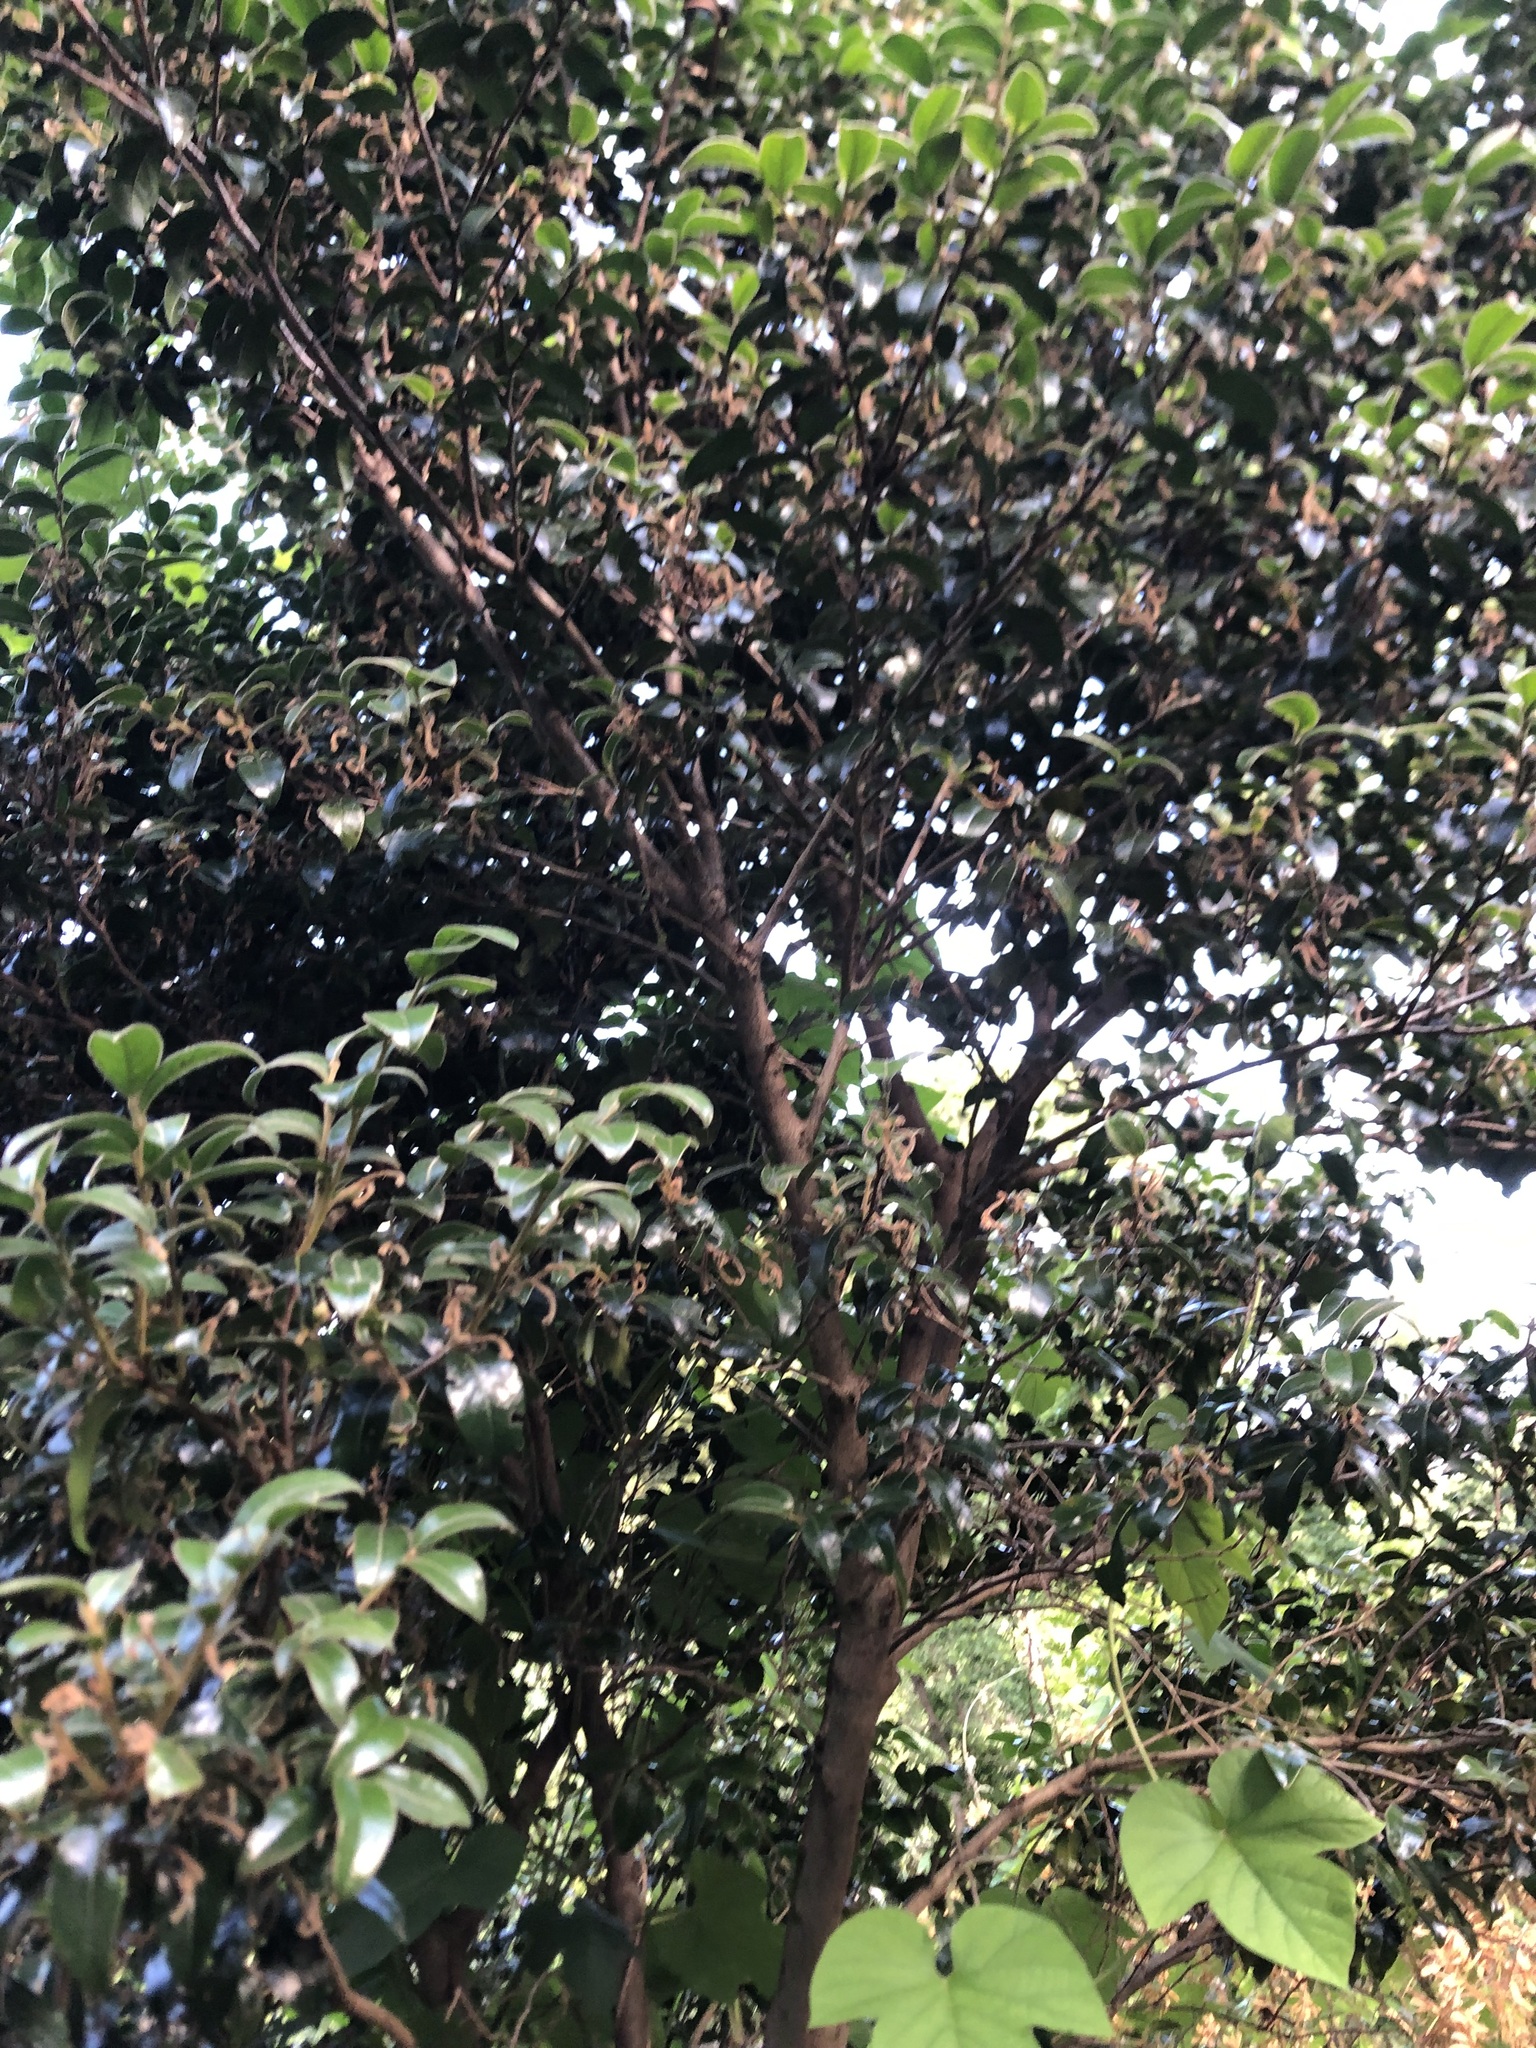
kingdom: Plantae
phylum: Tracheophyta
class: Magnoliopsida
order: Ericales
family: Ebenaceae
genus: Diospyros
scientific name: Diospyros whyteana
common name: Bladder-nut
